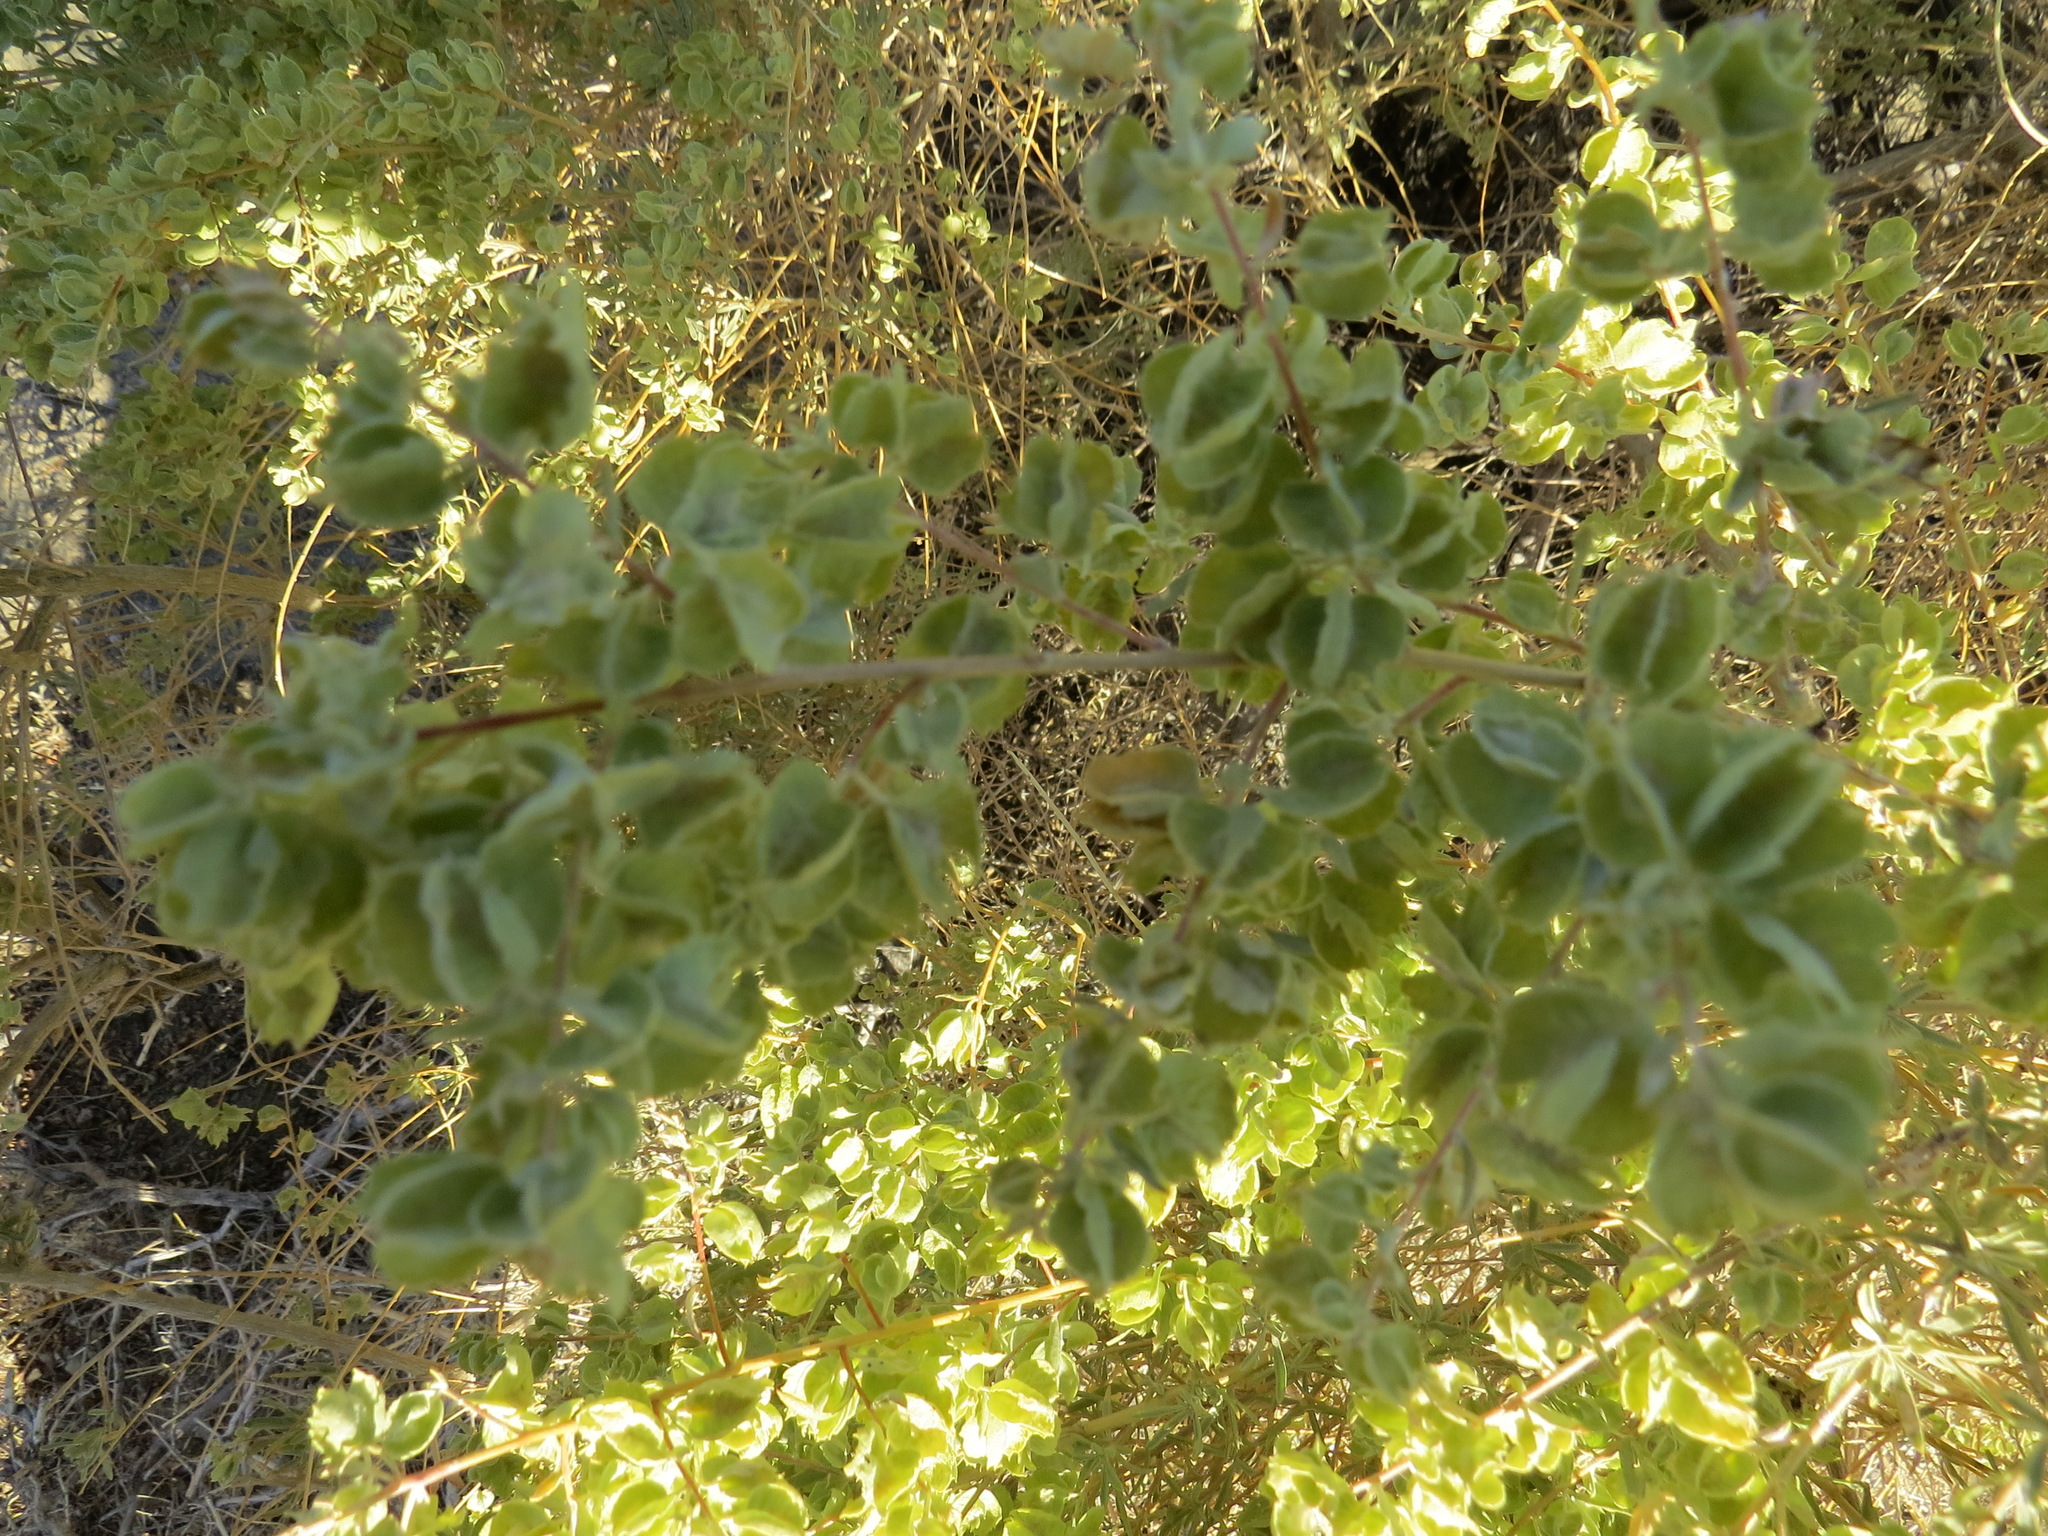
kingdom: Plantae
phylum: Tracheophyta
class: Magnoliopsida
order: Caryophyllales
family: Amaranthaceae
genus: Atriplex
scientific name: Atriplex canescens
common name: Four-wing saltbush
